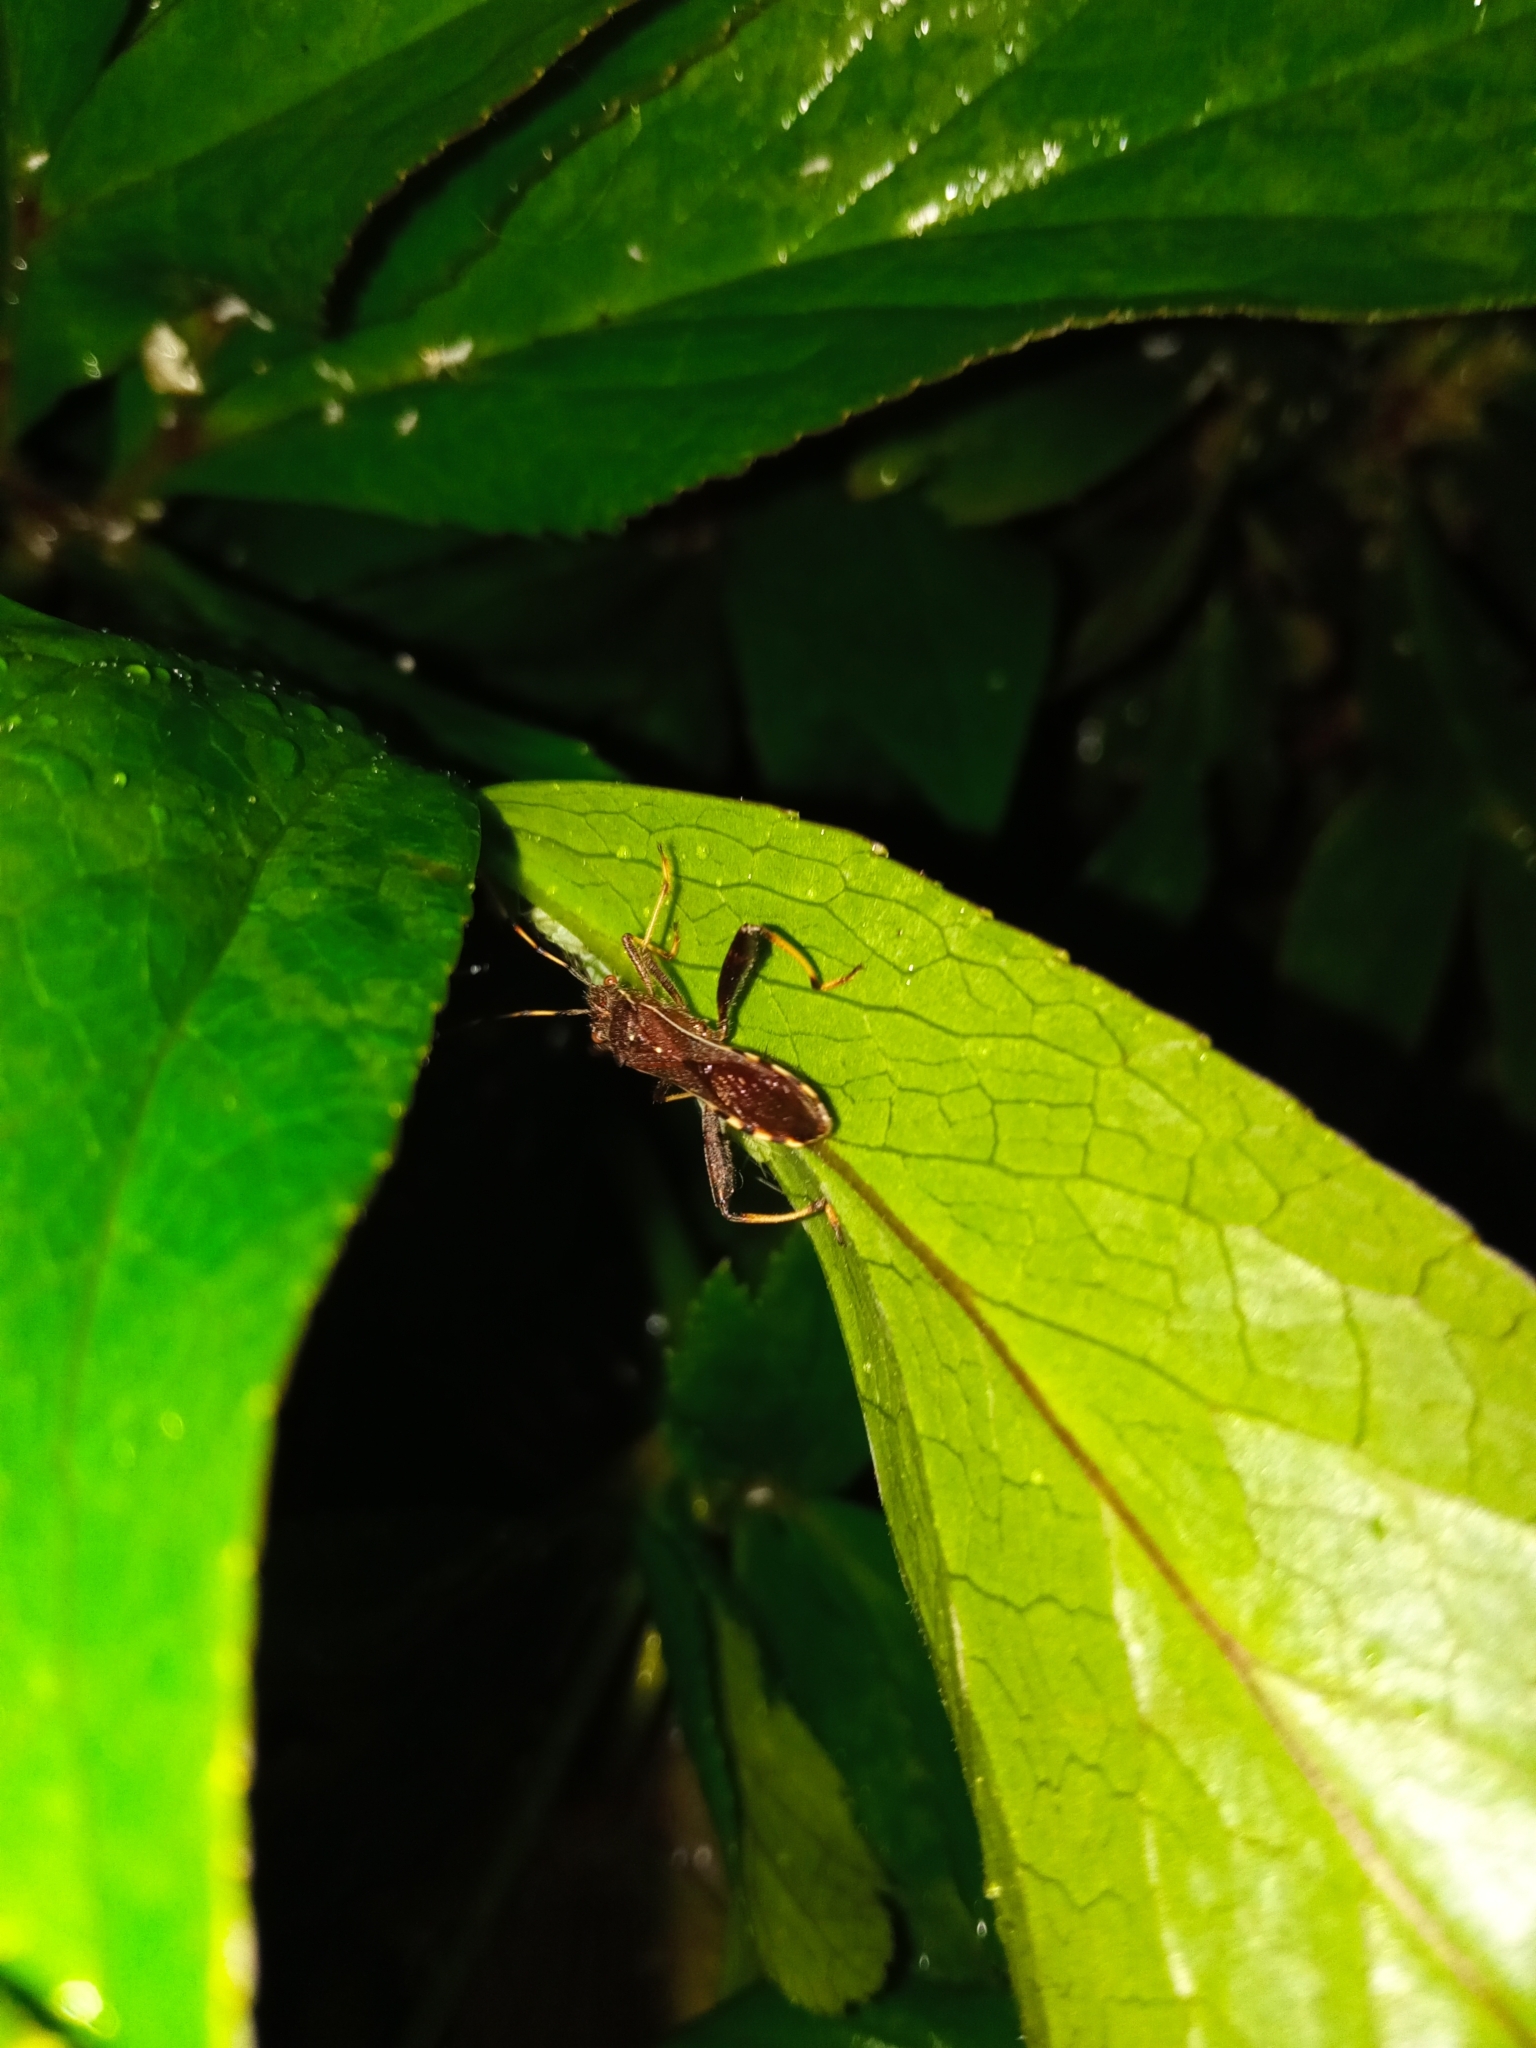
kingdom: Animalia
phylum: Arthropoda
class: Insecta
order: Hemiptera
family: Alydidae
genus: Camptopus
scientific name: Camptopus lateralis
